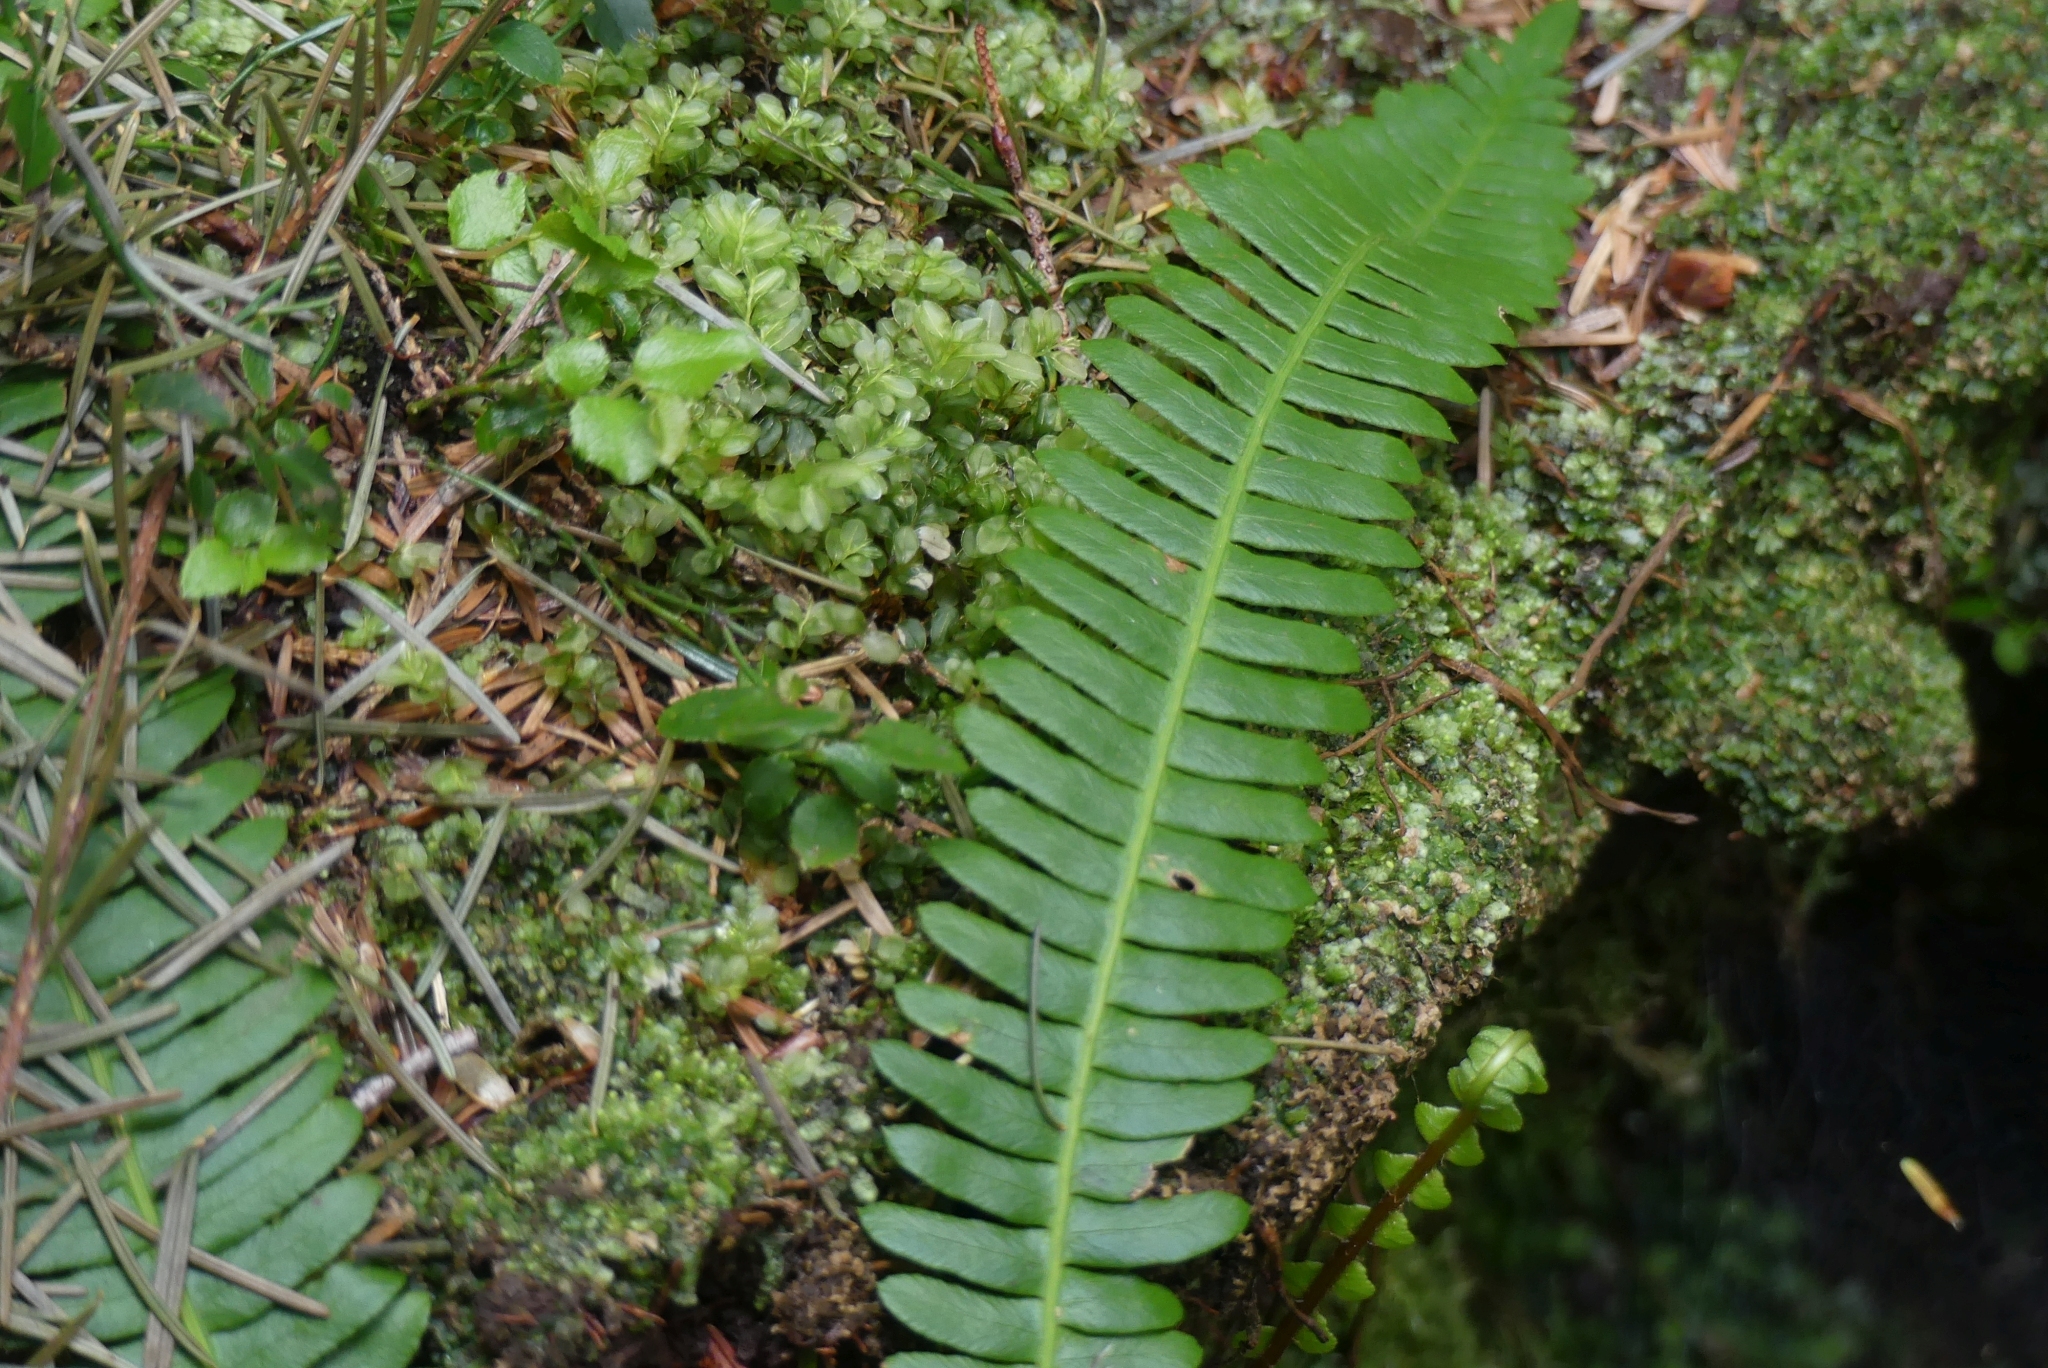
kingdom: Plantae
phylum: Tracheophyta
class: Polypodiopsida
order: Polypodiales
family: Blechnaceae
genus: Struthiopteris
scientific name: Struthiopteris spicant
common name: Deer fern
